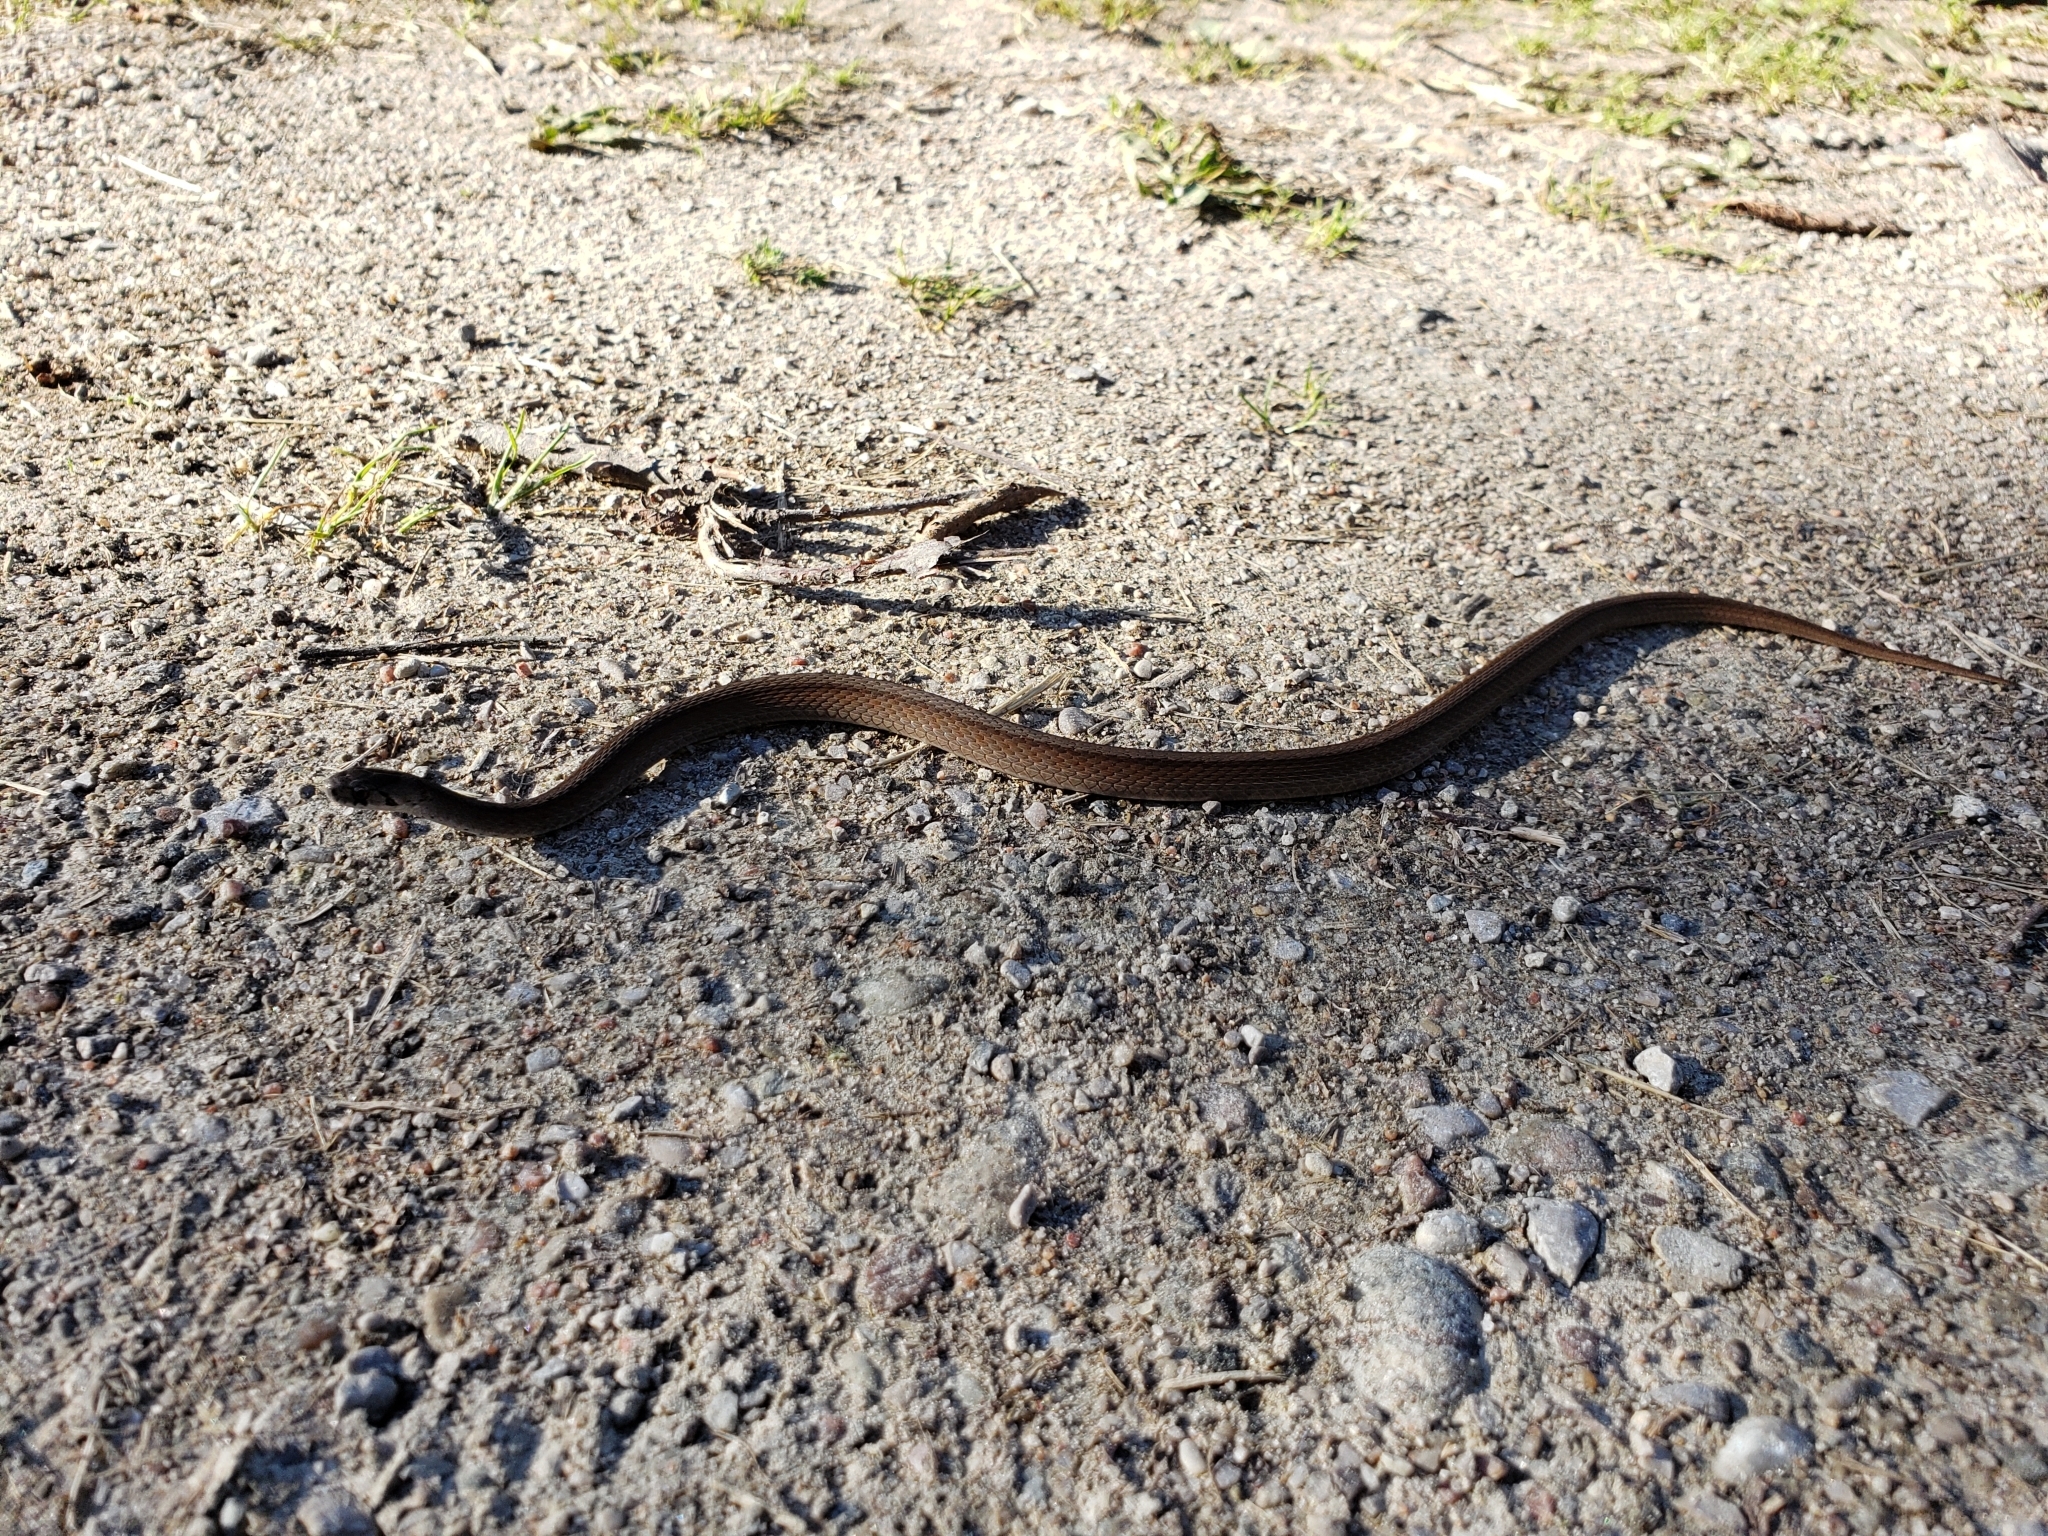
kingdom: Animalia
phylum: Chordata
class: Squamata
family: Colubridae
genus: Storeria
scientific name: Storeria dekayi
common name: (dekay’s) brown snake
